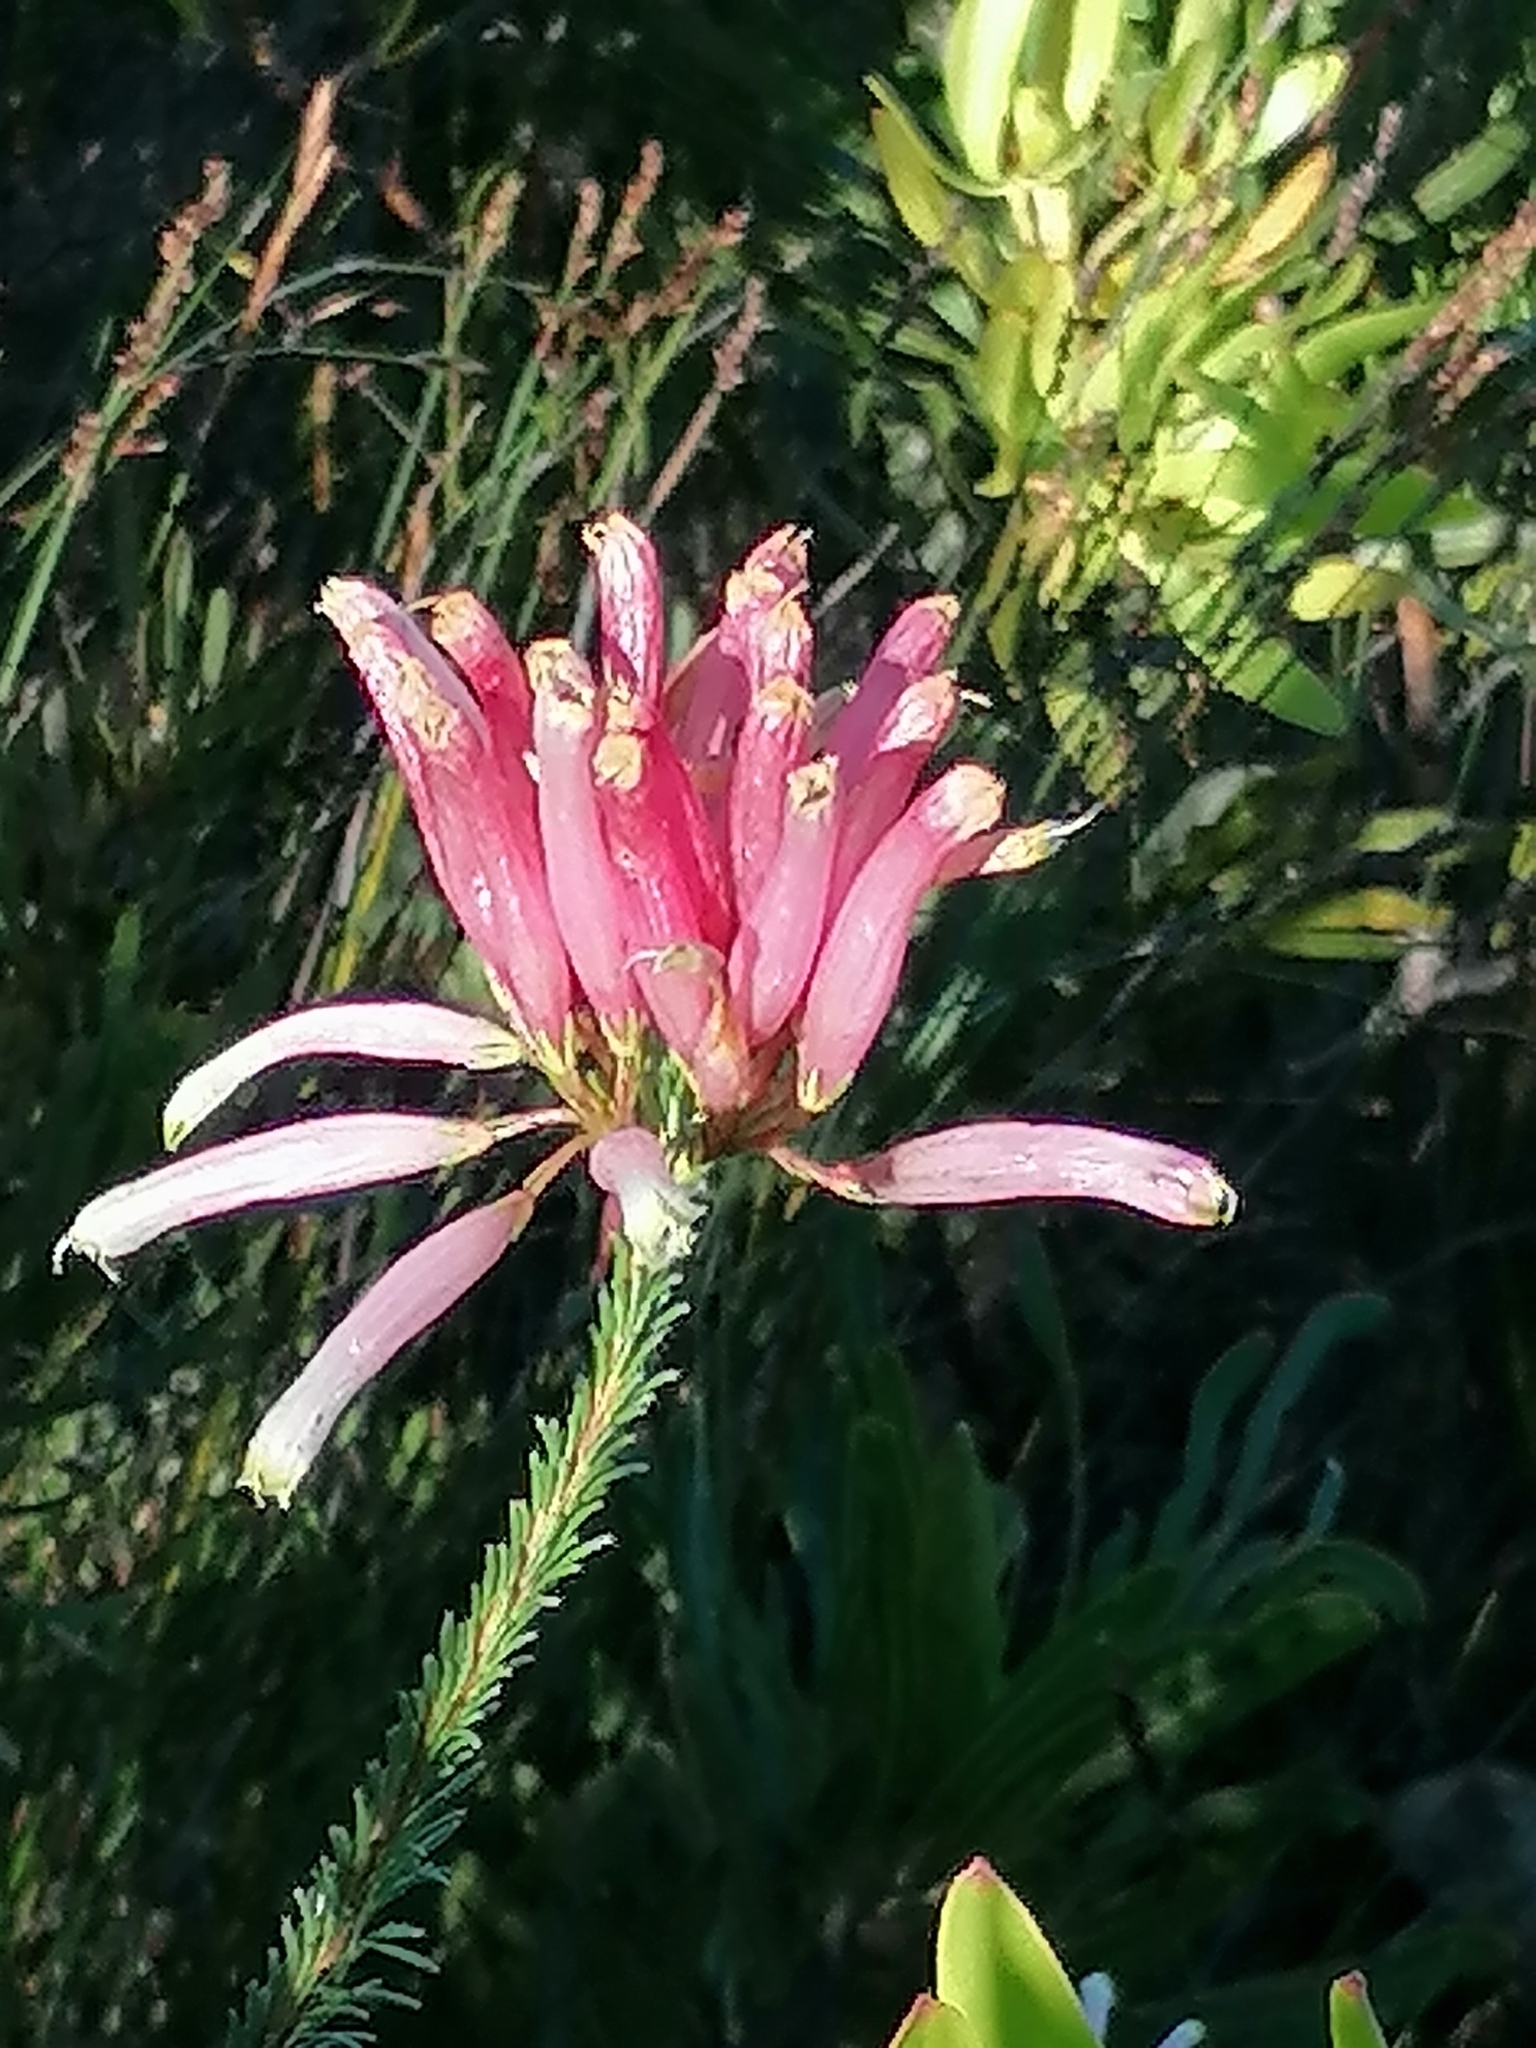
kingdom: Plantae
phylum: Tracheophyta
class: Magnoliopsida
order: Ericales
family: Ericaceae
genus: Erica
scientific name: Erica fascicularis
